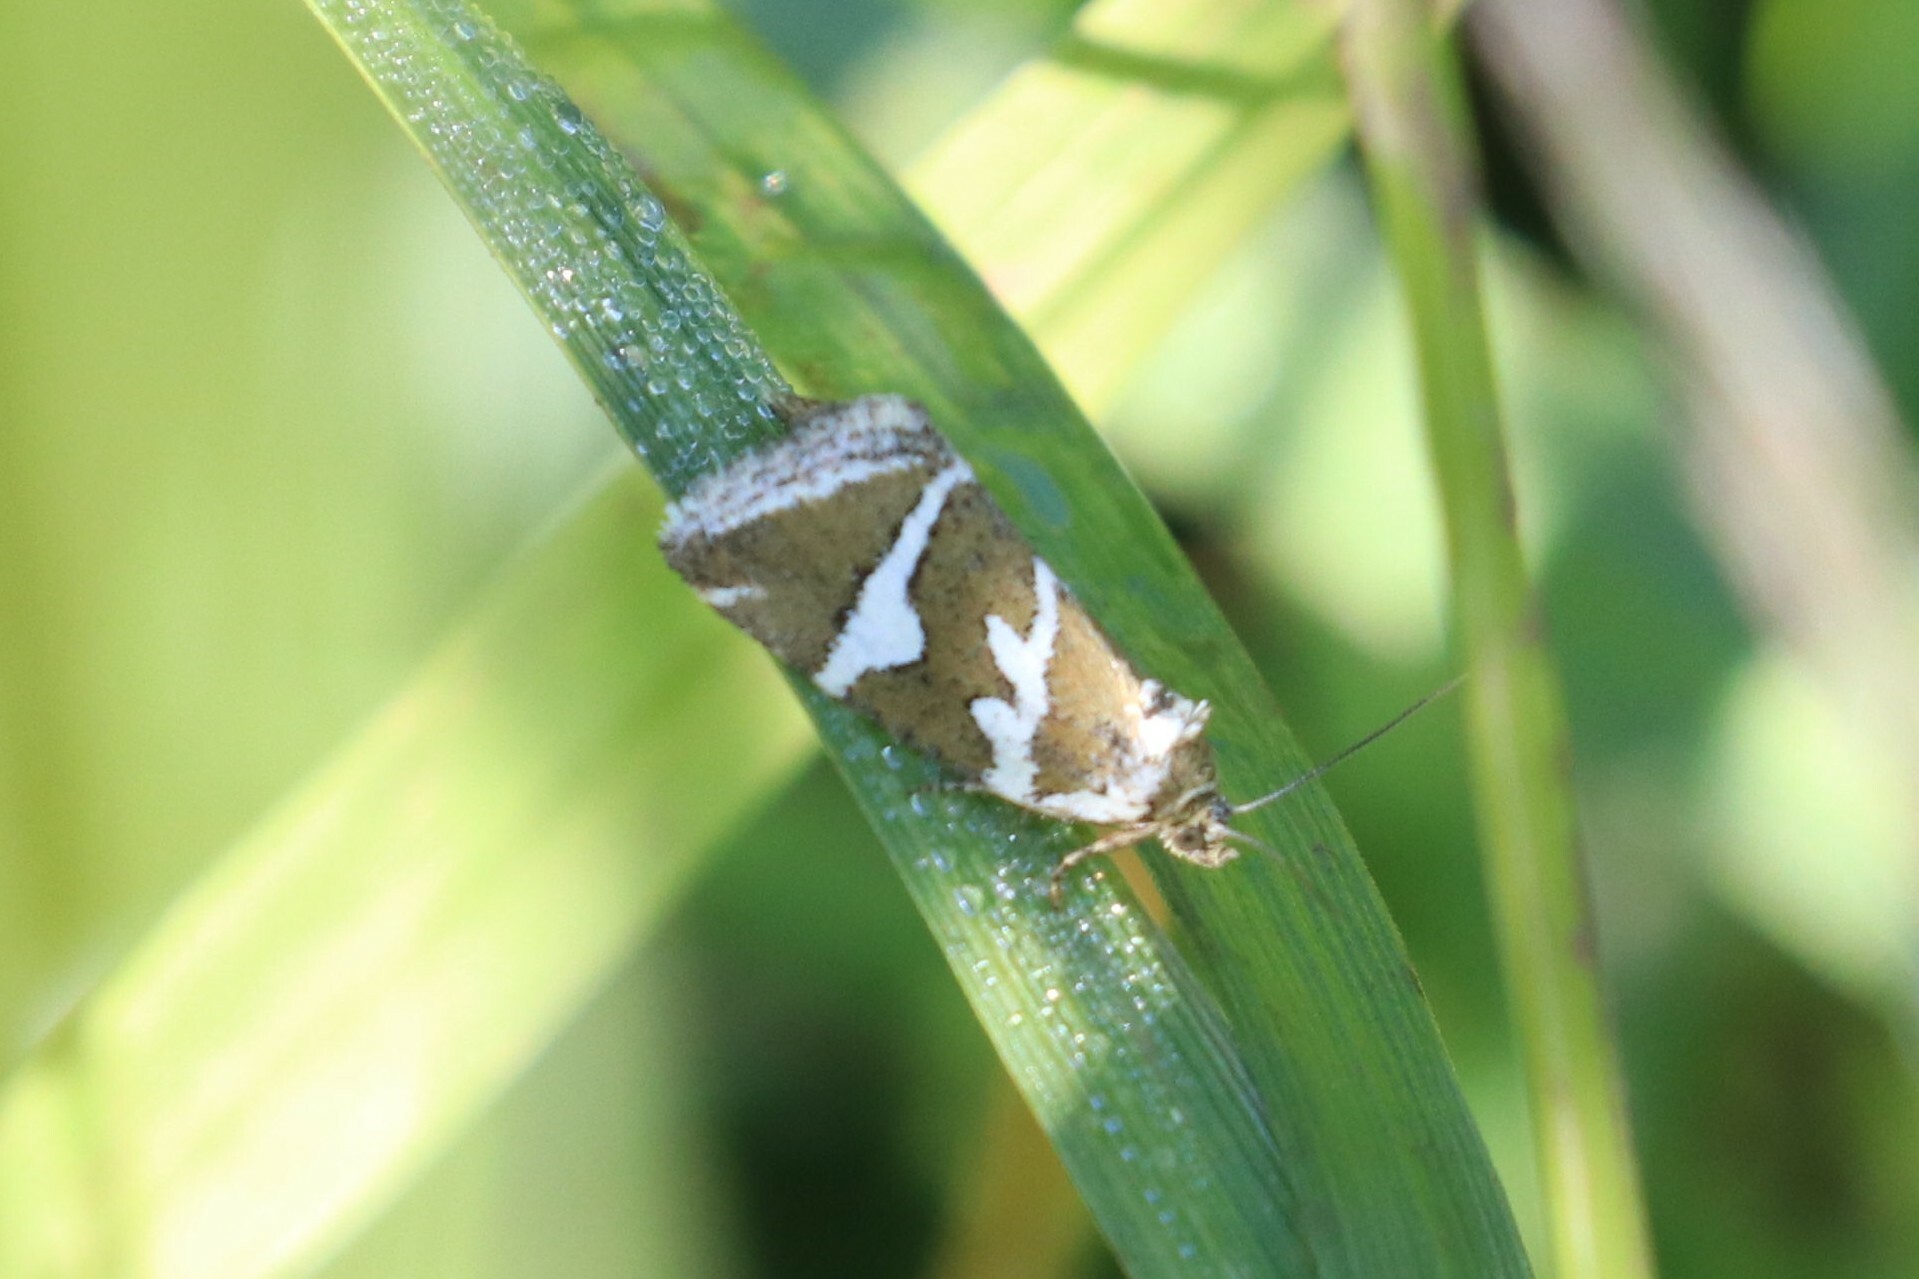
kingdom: Animalia
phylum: Arthropoda
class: Insecta
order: Lepidoptera
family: Noctuidae
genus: Deltote
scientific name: Deltote bankiana
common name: Silver barred
